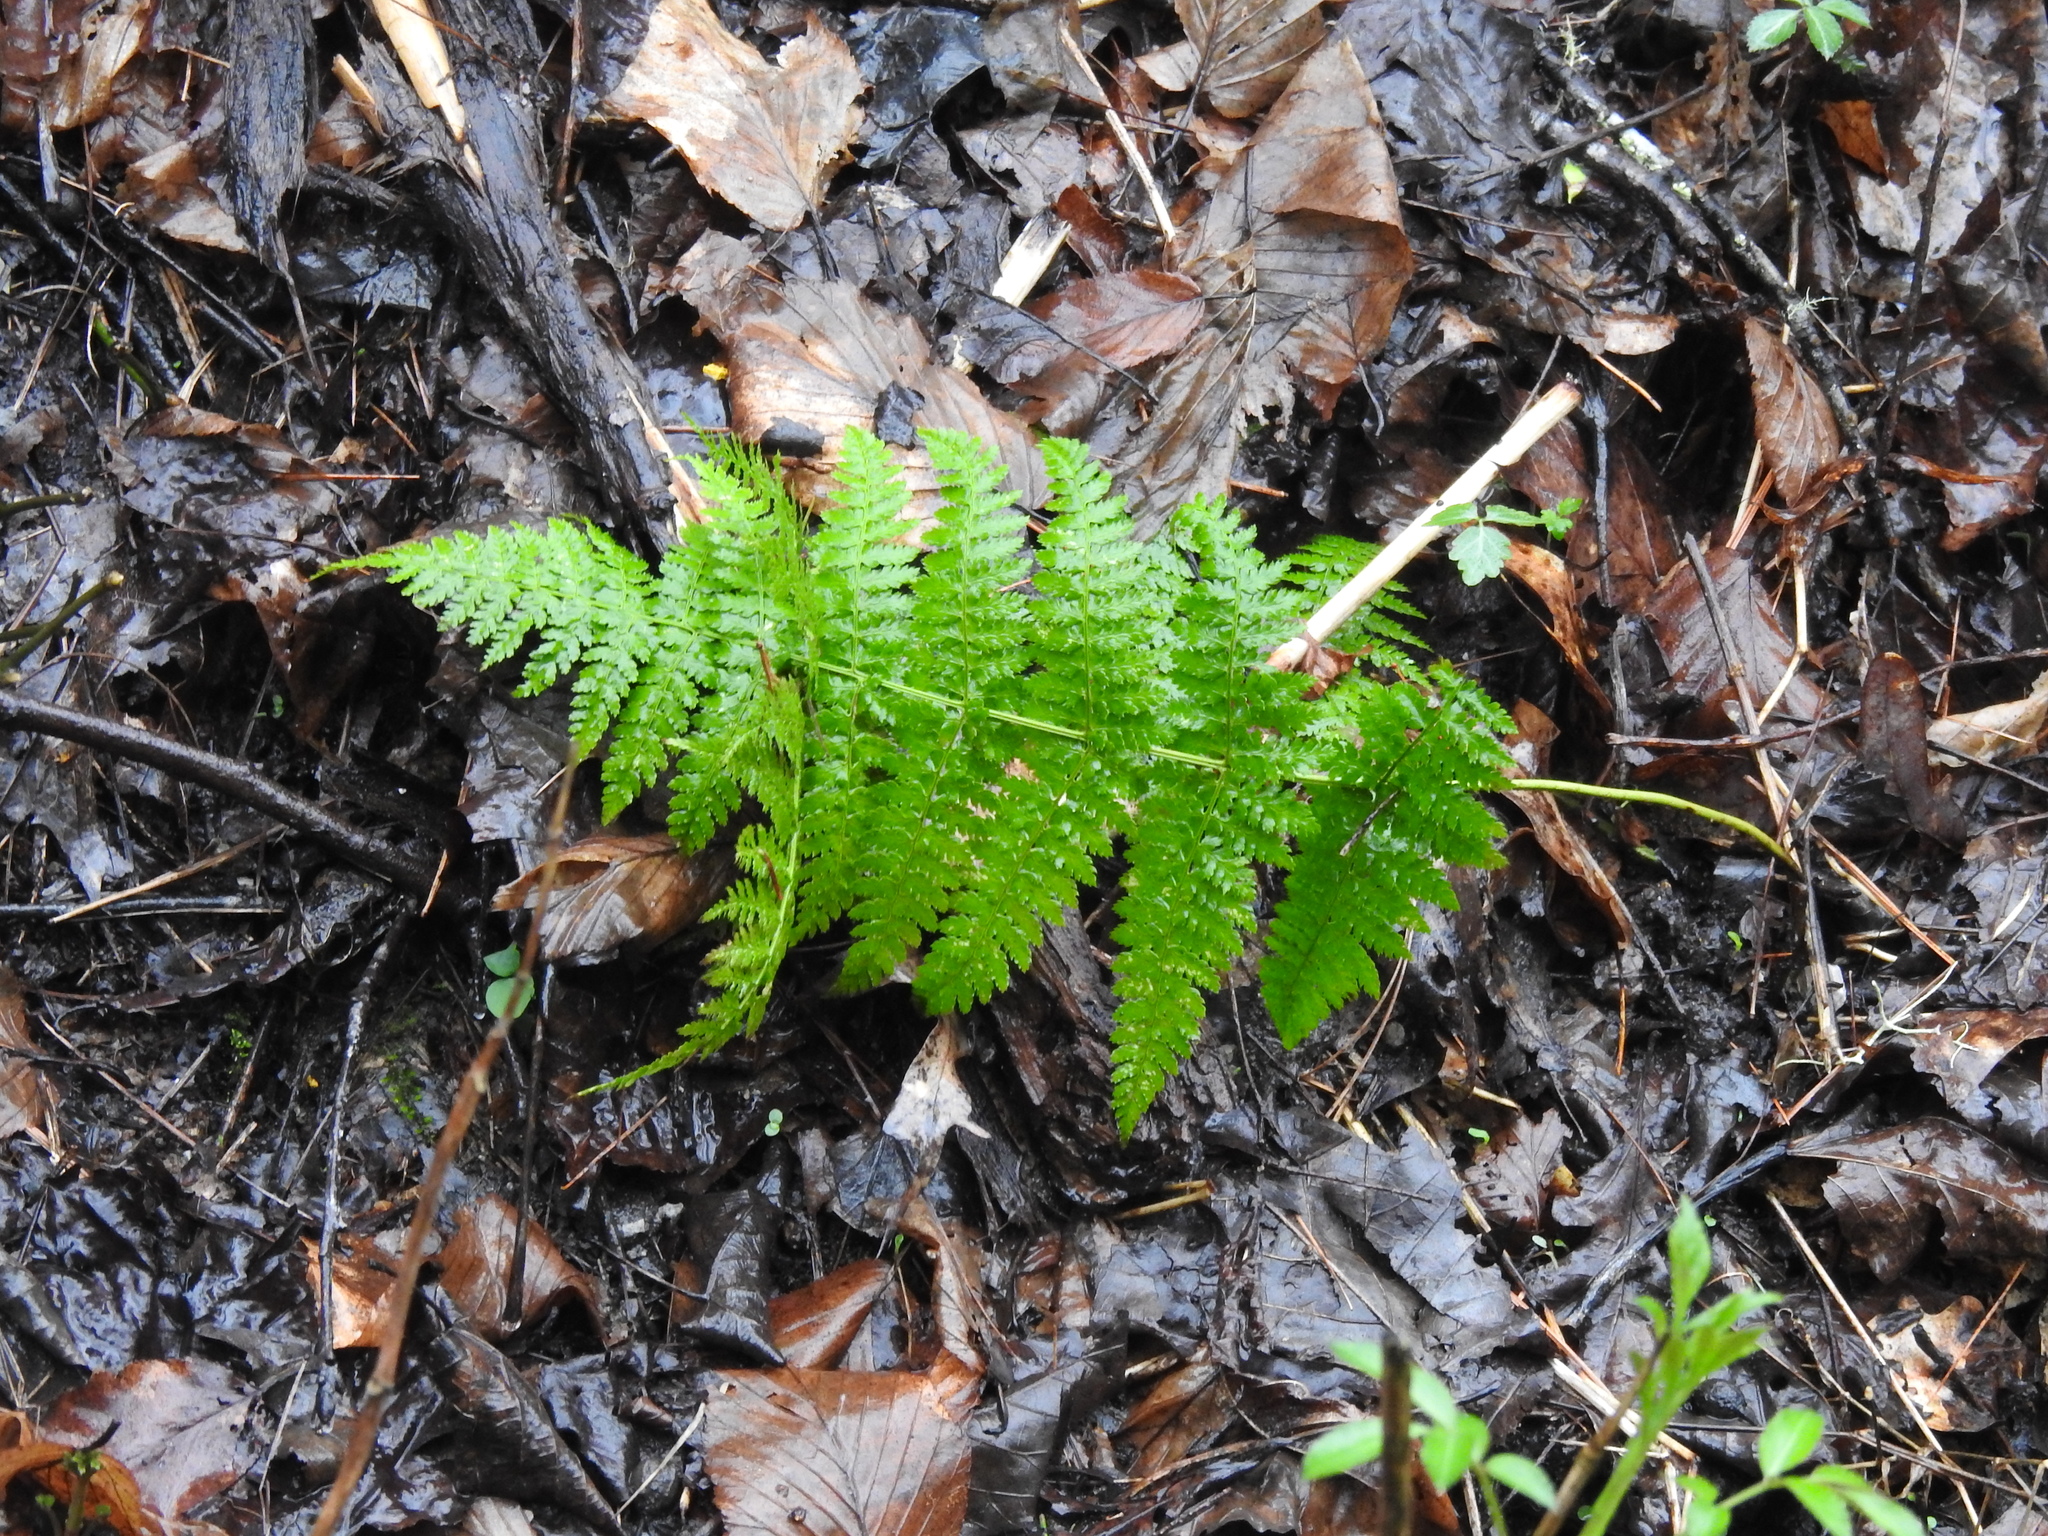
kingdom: Plantae
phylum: Tracheophyta
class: Polypodiopsida
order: Polypodiales
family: Dryopteridaceae
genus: Dryopteris
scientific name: Dryopteris carthusiana
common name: Narrow buckler-fern
